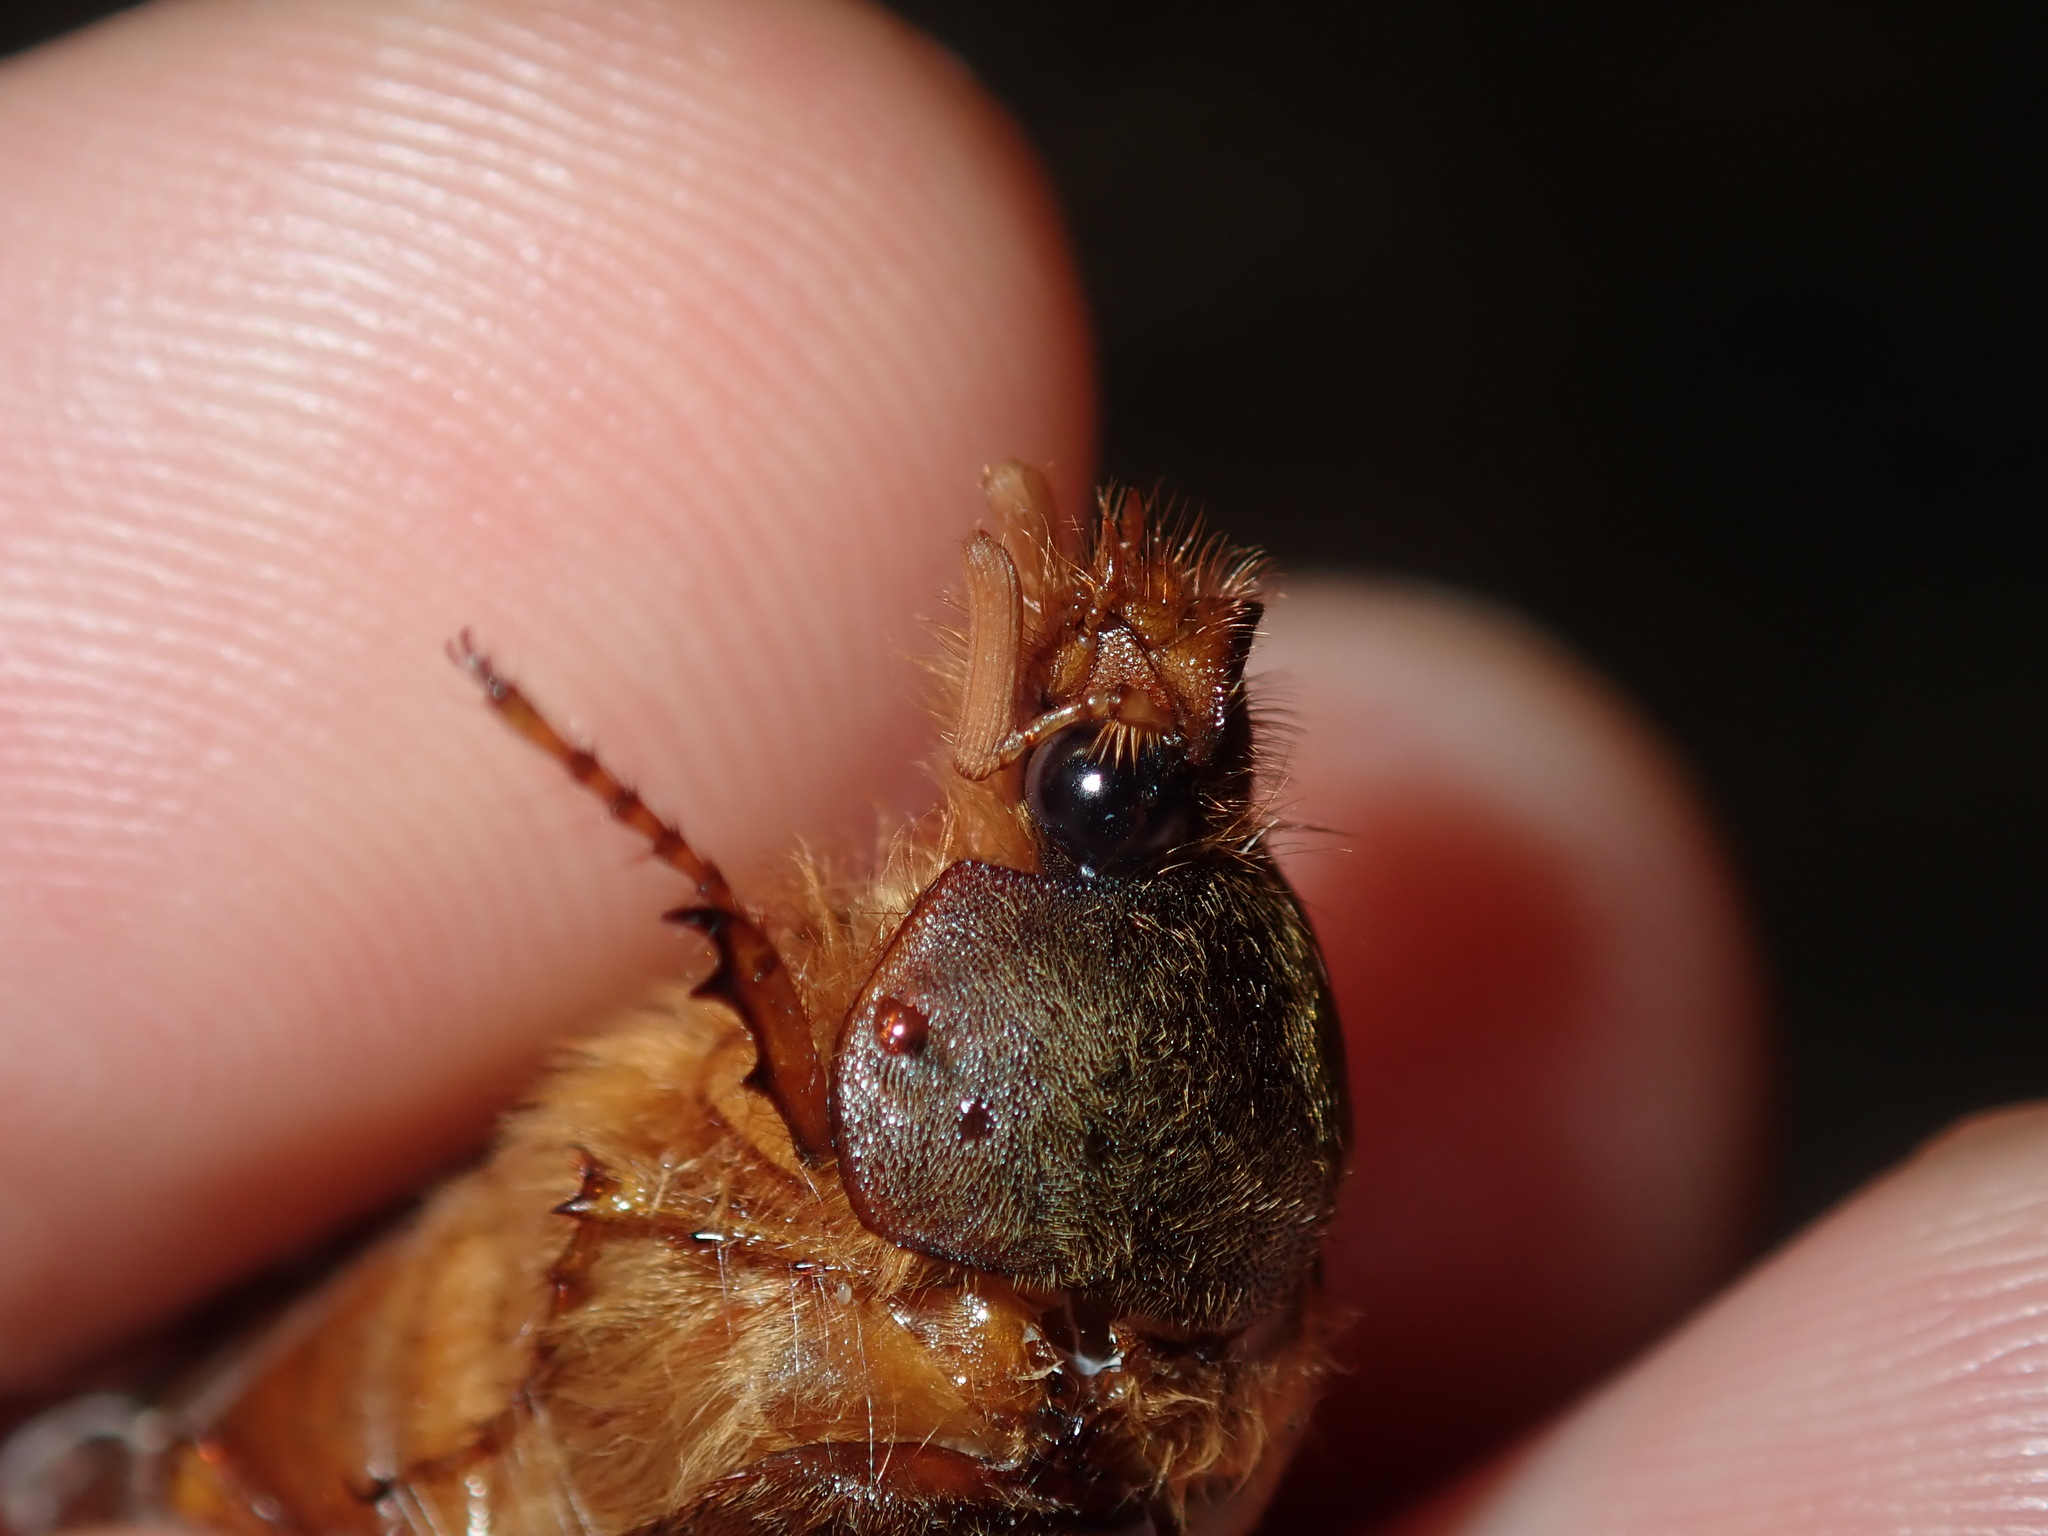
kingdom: Animalia
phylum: Arthropoda
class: Insecta
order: Coleoptera
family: Scarabaeidae
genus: Rhopaea
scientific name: Rhopaea verreauxi
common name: Cocksfoot grub
